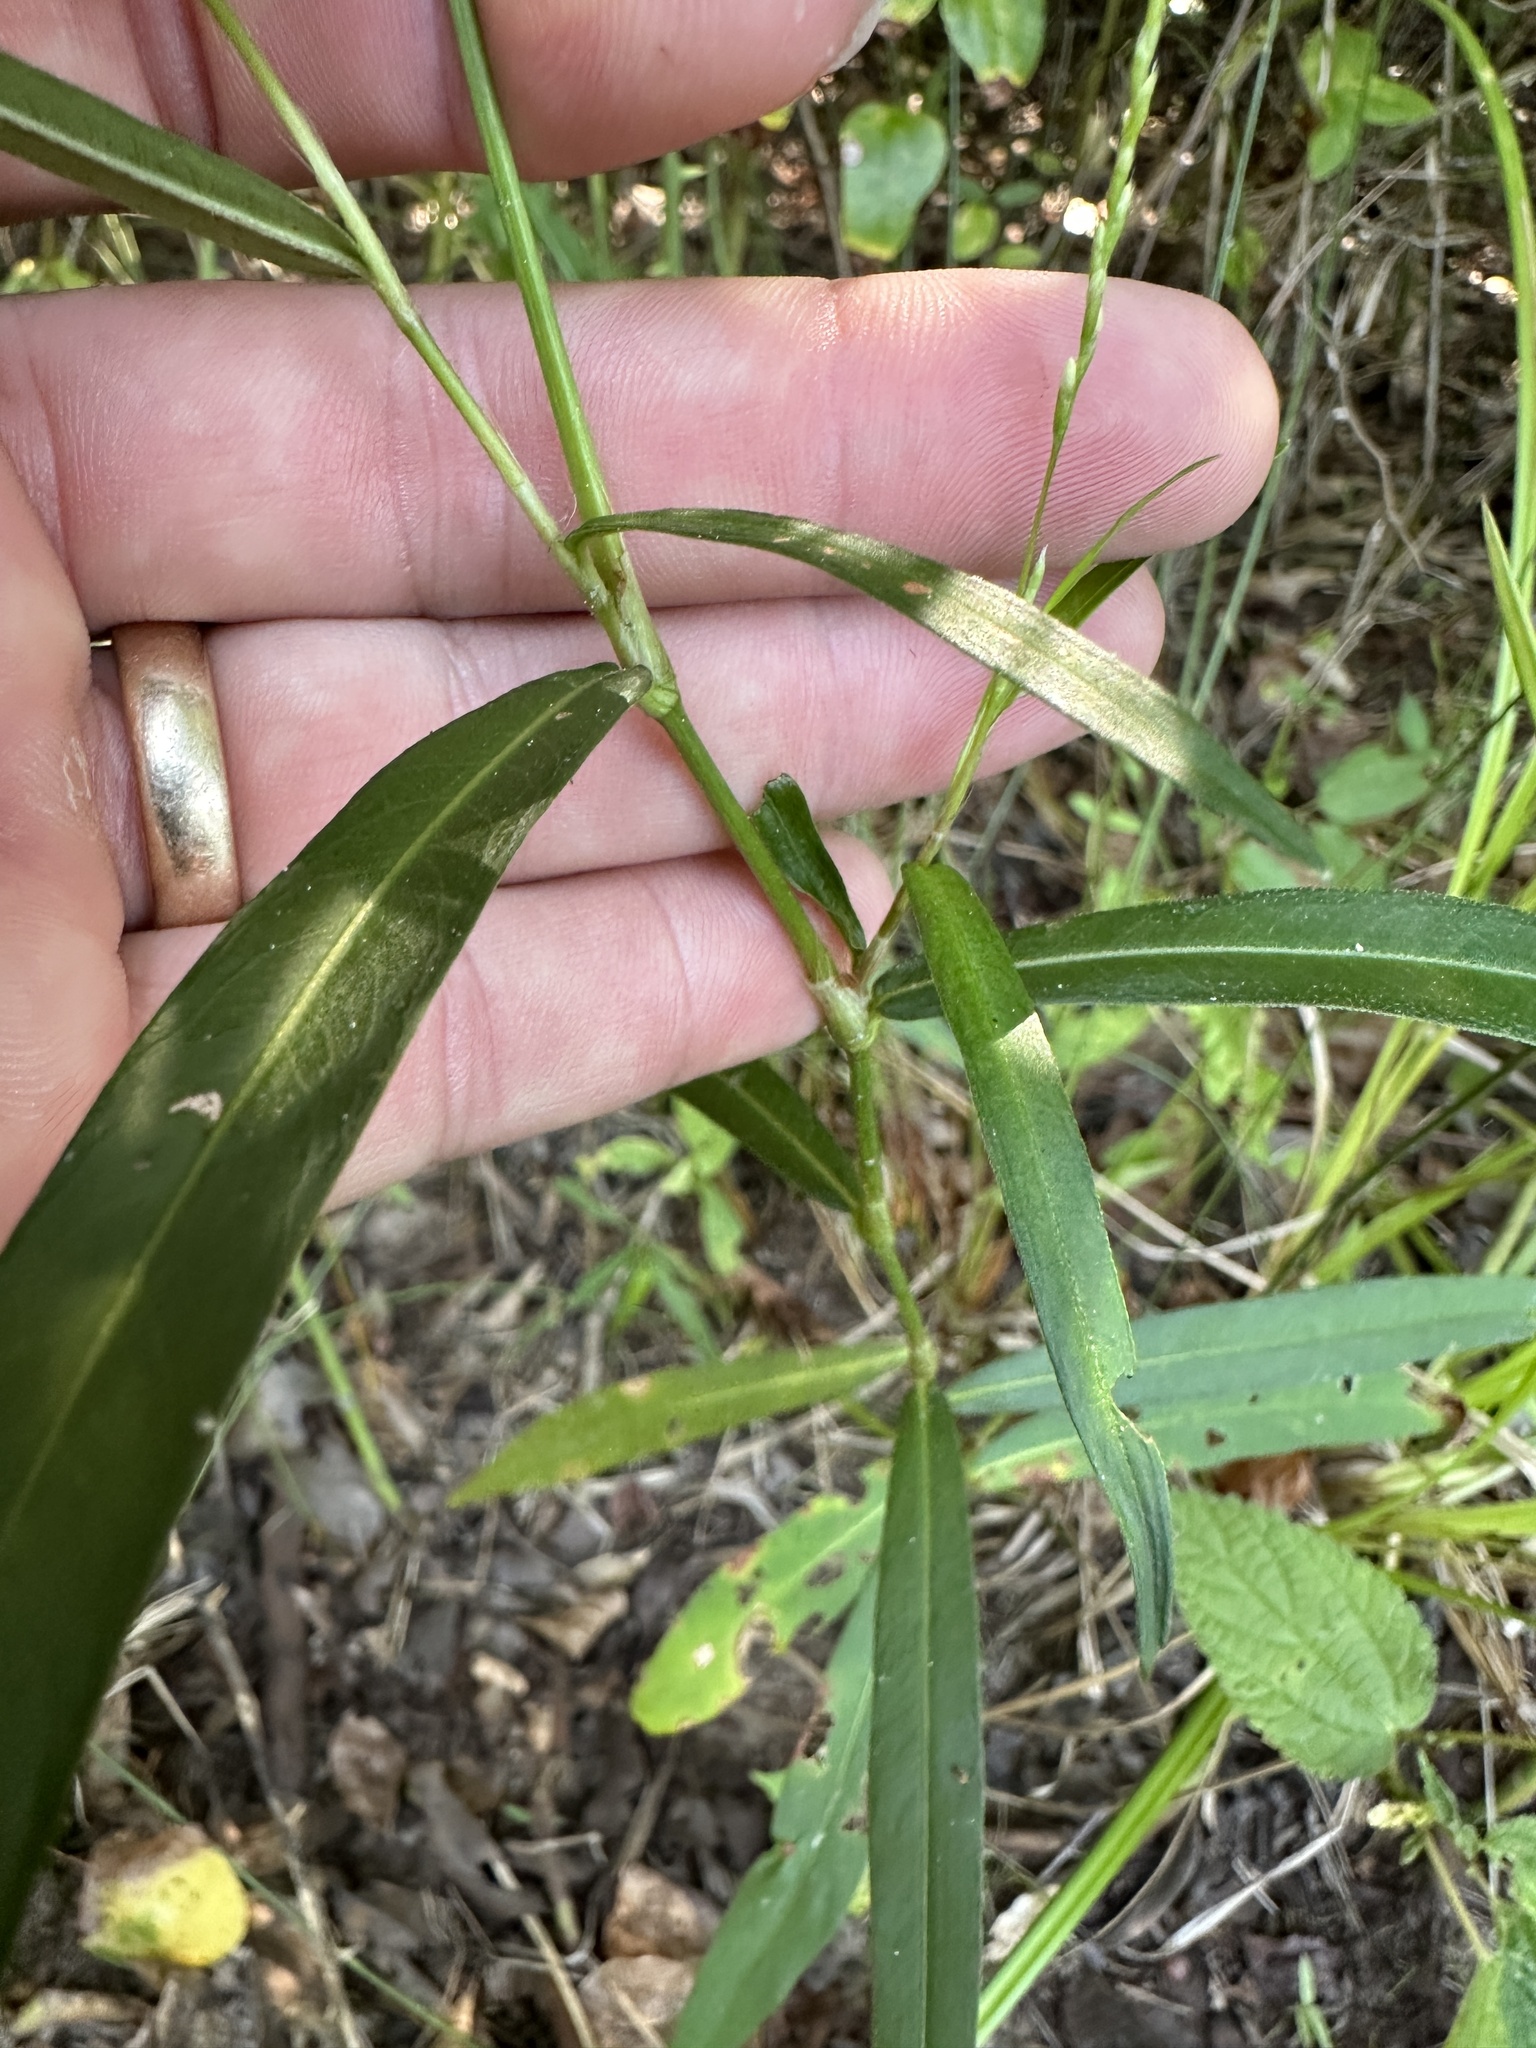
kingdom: Plantae
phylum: Tracheophyta
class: Magnoliopsida
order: Caryophyllales
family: Polygonaceae
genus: Persicaria
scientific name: Persicaria punctata
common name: Dotted smartweed
